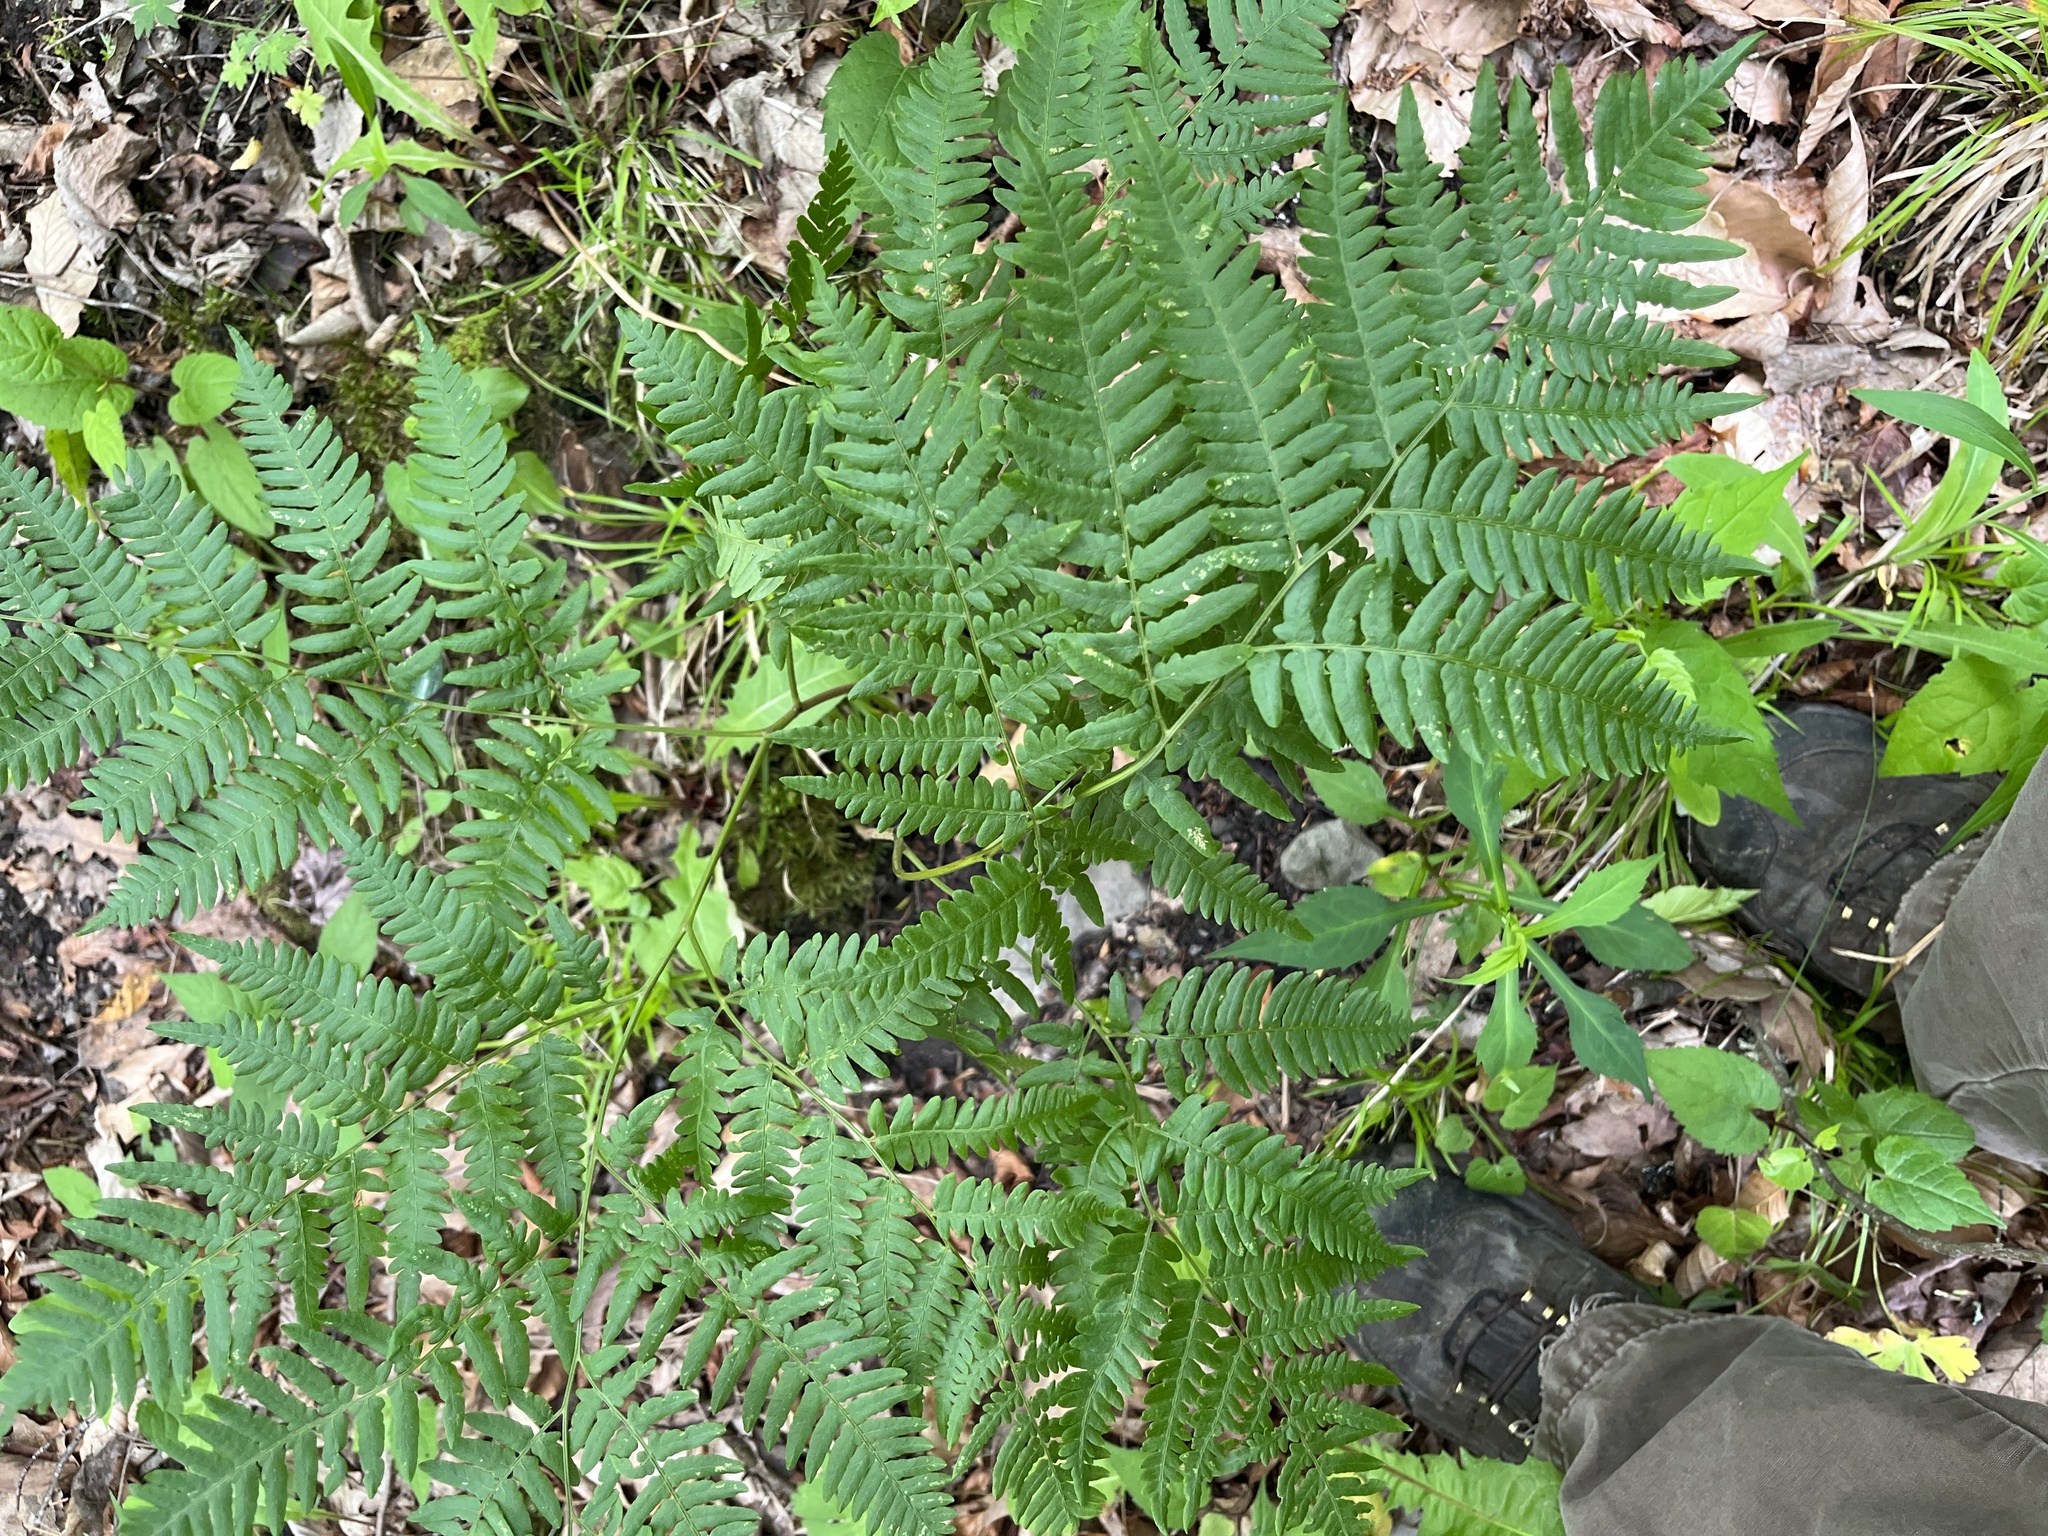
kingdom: Plantae
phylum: Tracheophyta
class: Polypodiopsida
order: Polypodiales
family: Dennstaedtiaceae
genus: Pteridium
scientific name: Pteridium aquilinum
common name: Bracken
